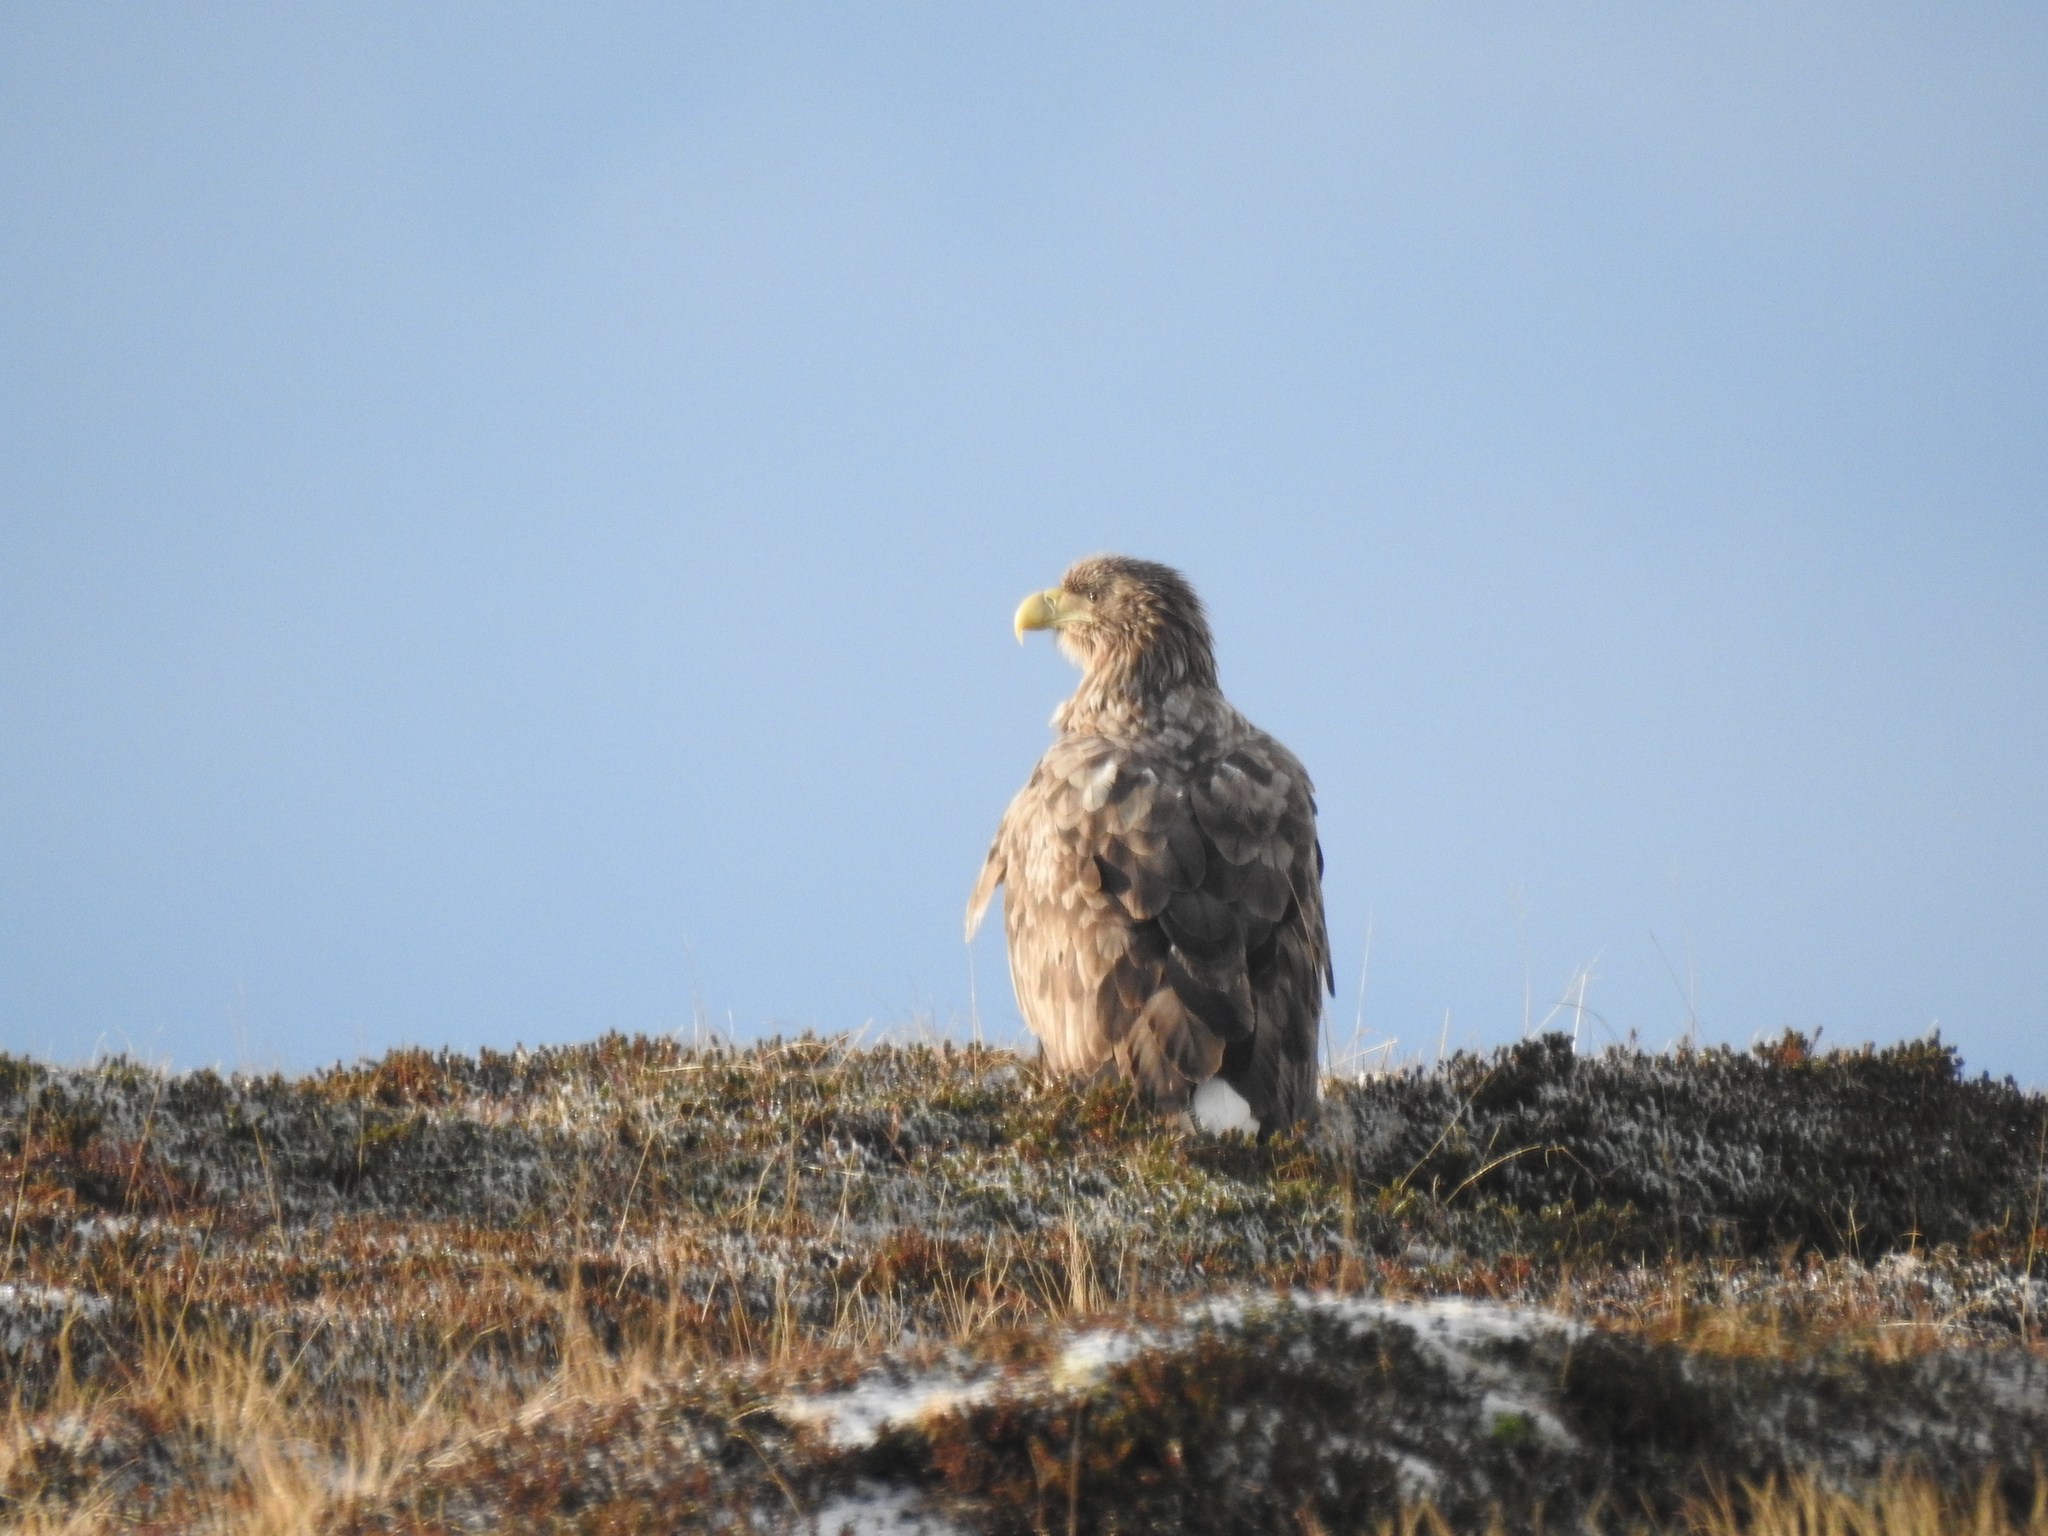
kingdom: Animalia
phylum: Chordata
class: Aves
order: Accipitriformes
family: Accipitridae
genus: Haliaeetus
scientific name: Haliaeetus albicilla
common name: White-tailed eagle
